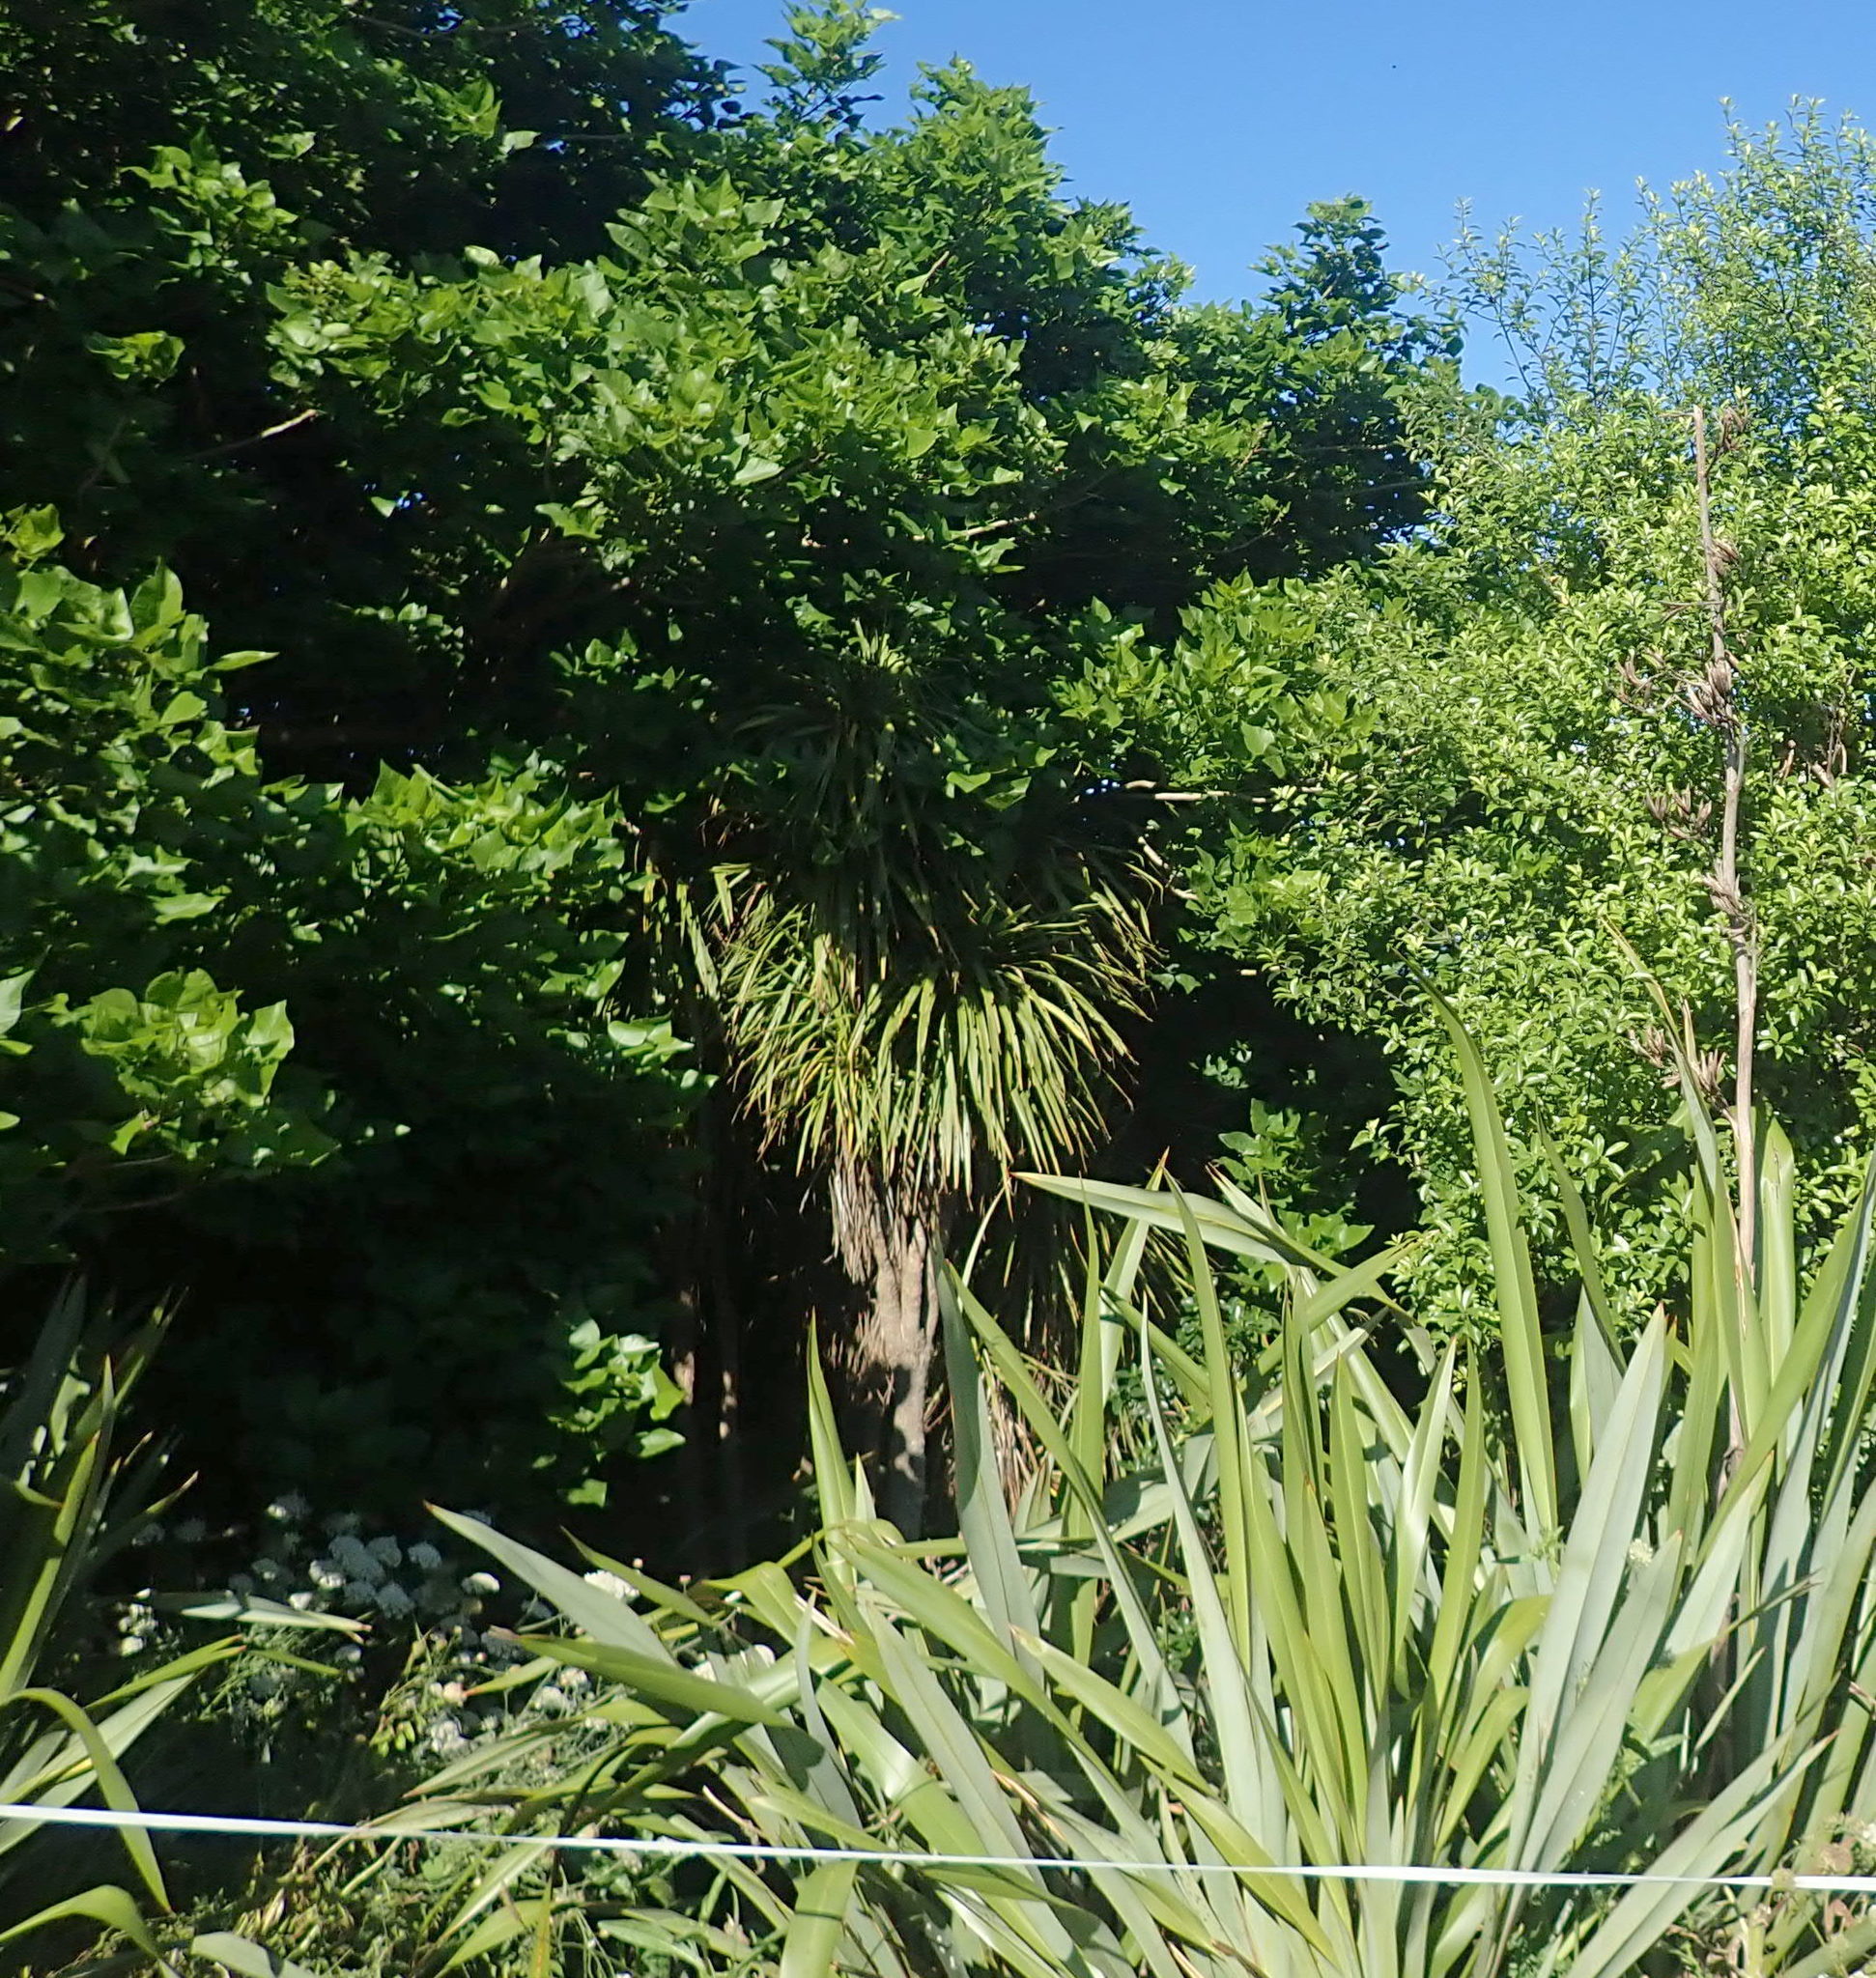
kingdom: Plantae
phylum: Tracheophyta
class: Liliopsida
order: Asparagales
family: Asparagaceae
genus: Cordyline
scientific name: Cordyline australis
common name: Cabbage-palm
